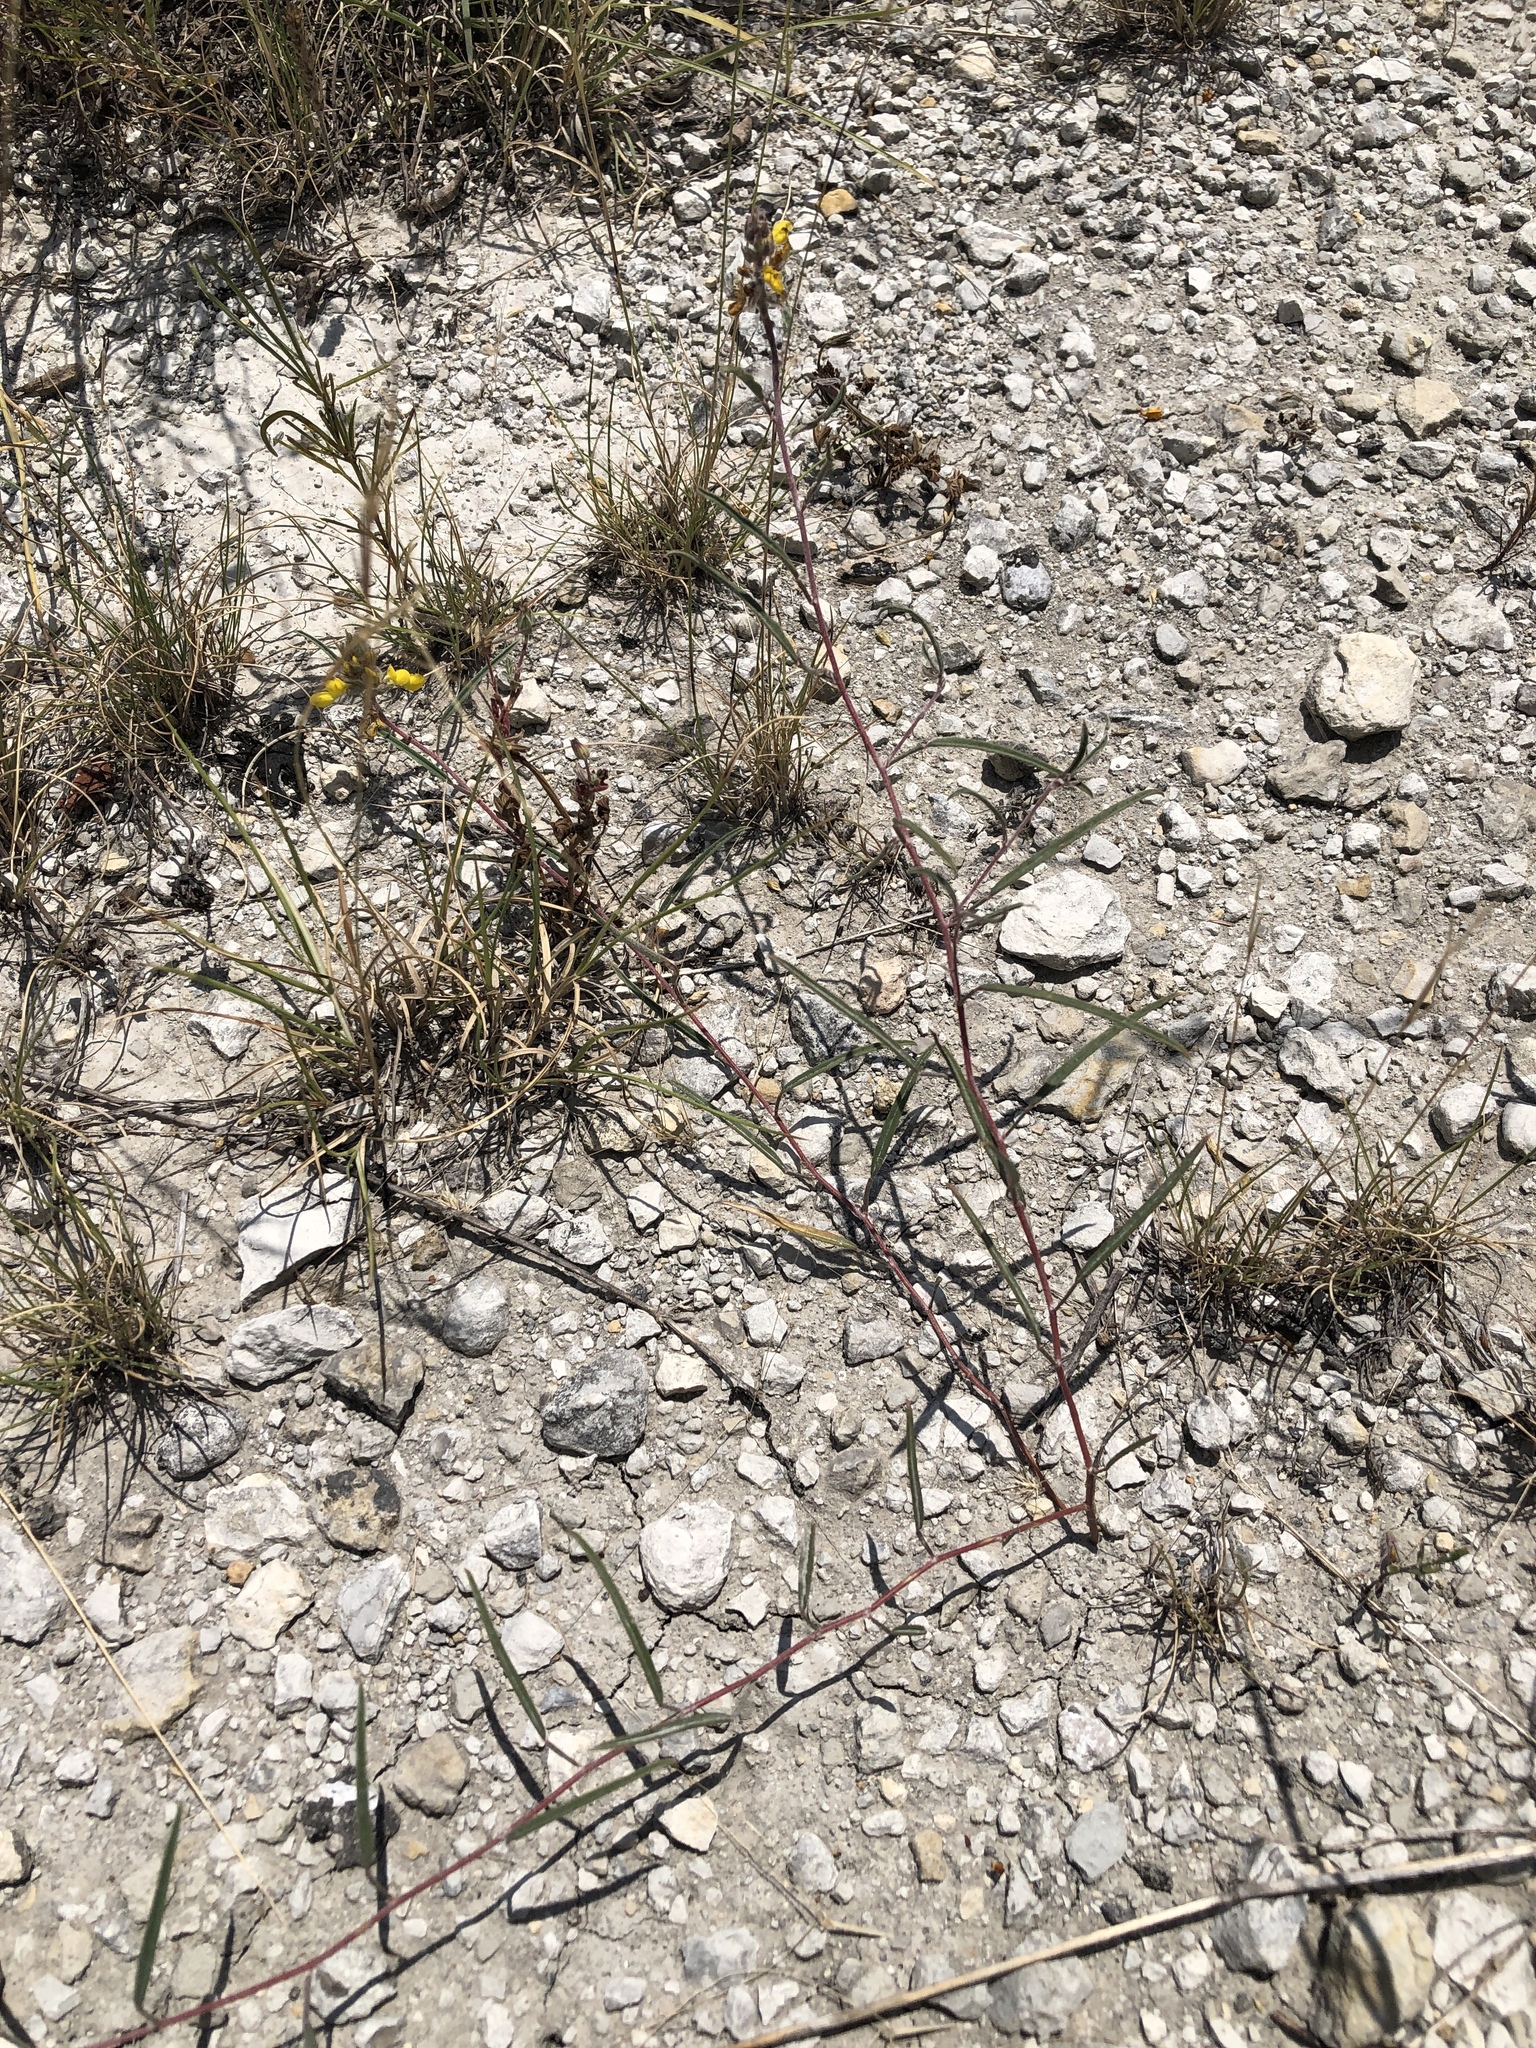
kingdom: Plantae
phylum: Tracheophyta
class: Magnoliopsida
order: Fabales
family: Fabaceae
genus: Dalea
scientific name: Dalea hallii
